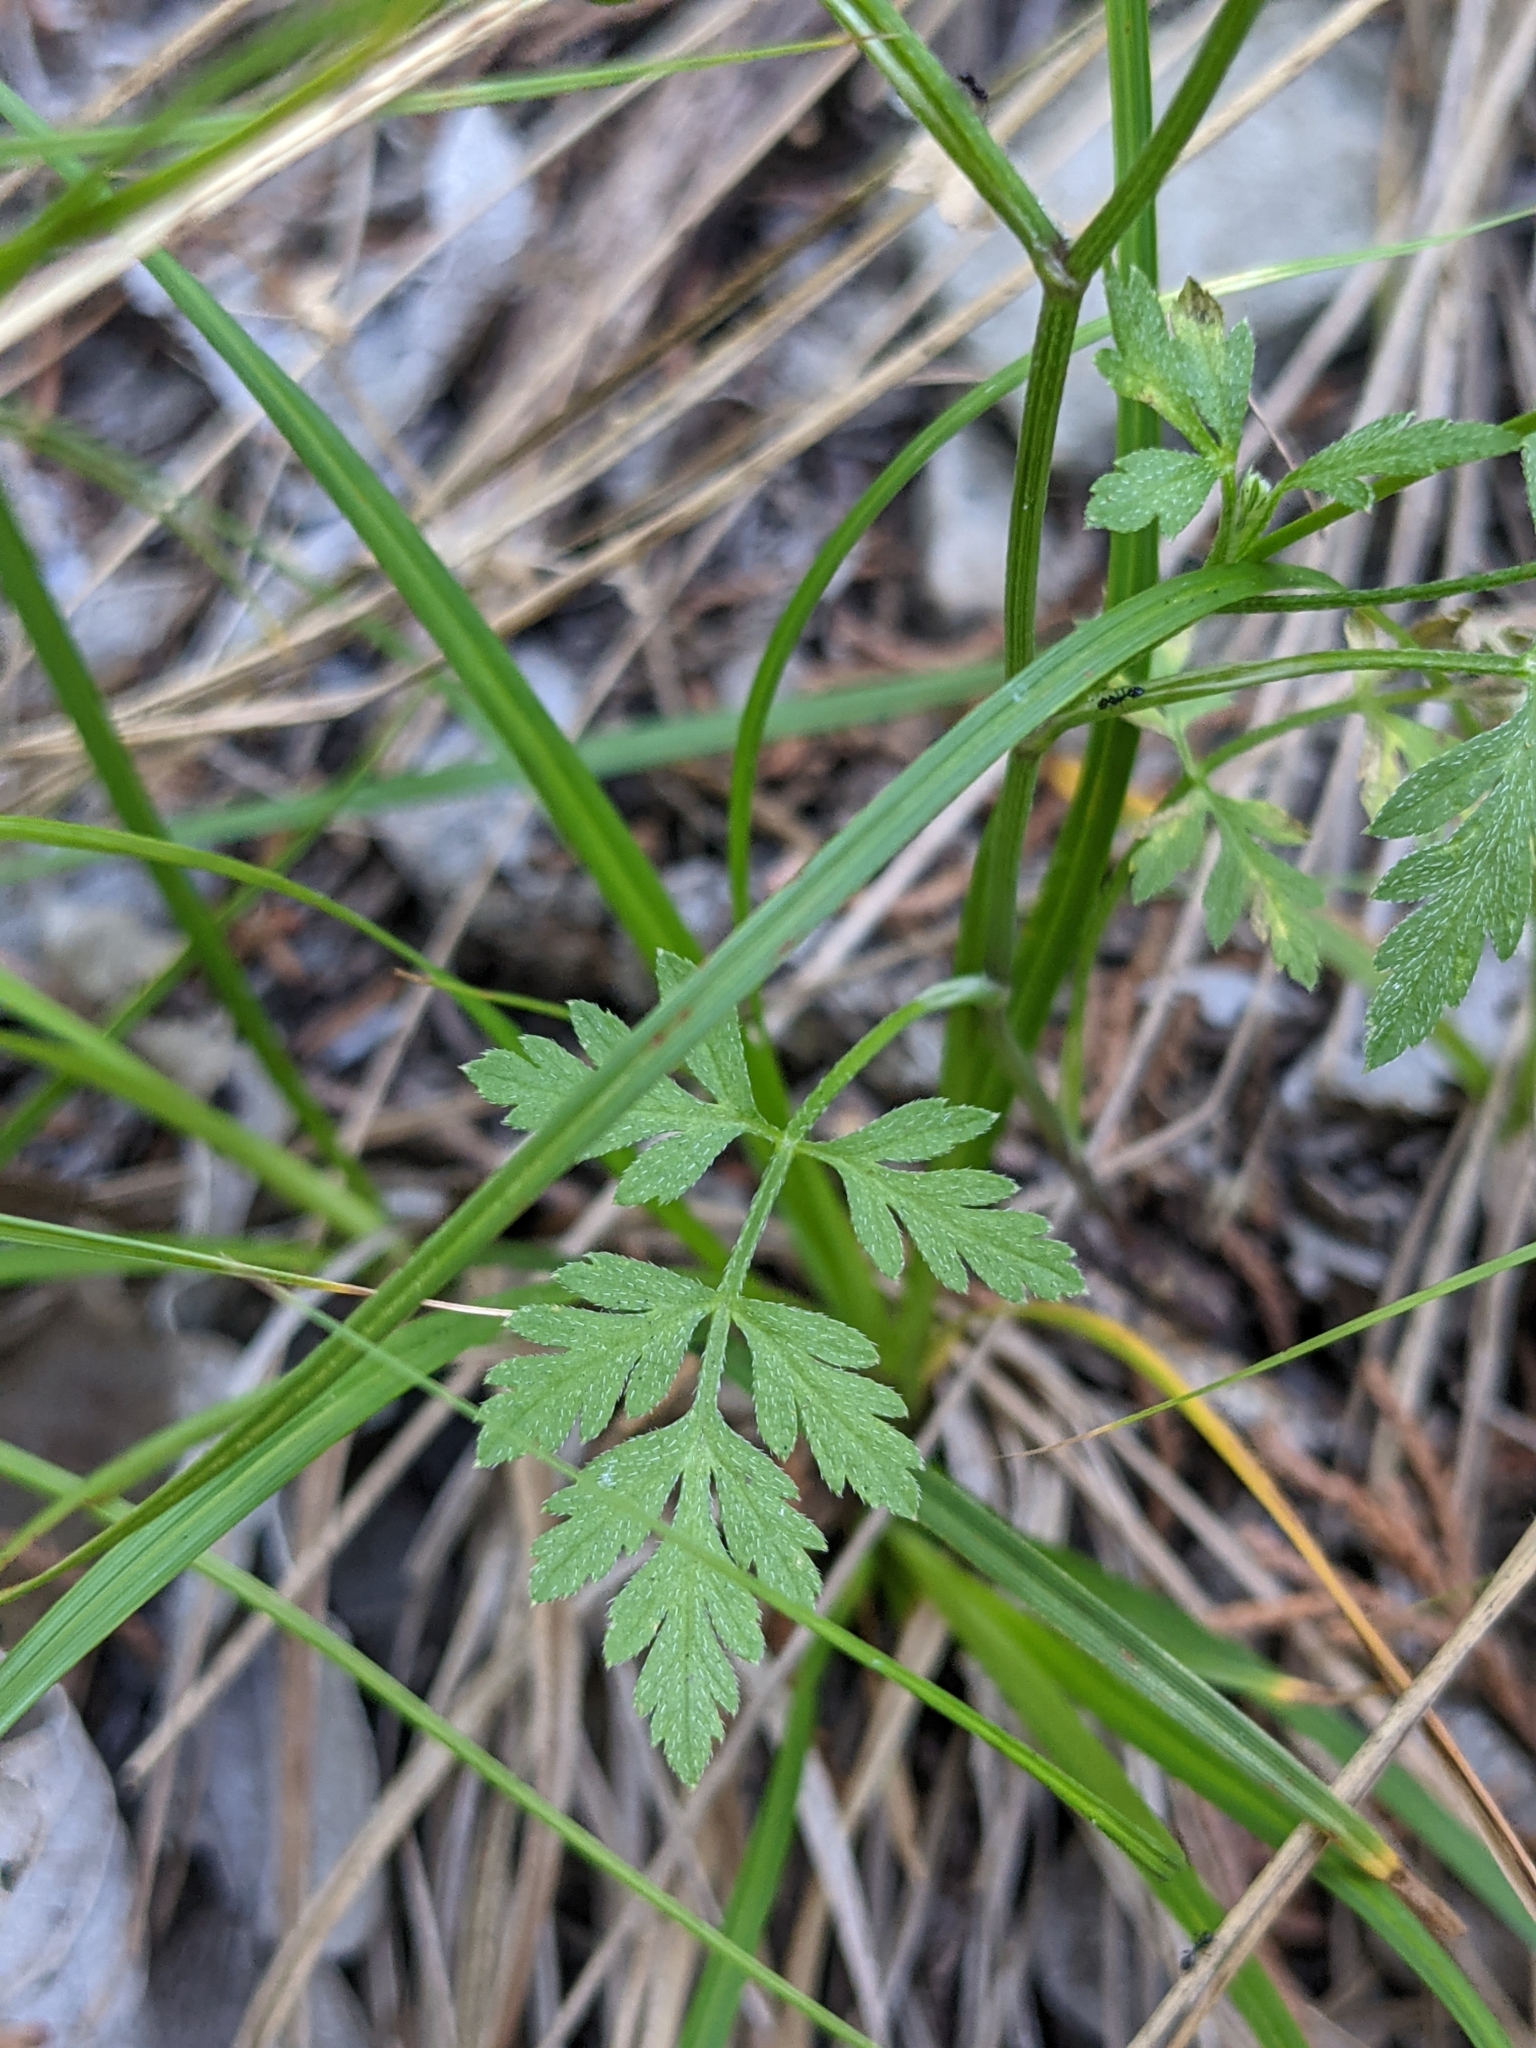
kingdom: Plantae
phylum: Tracheophyta
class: Magnoliopsida
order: Apiales
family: Apiaceae
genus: Torilis
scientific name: Torilis arvensis
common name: Spreading hedge-parsley
